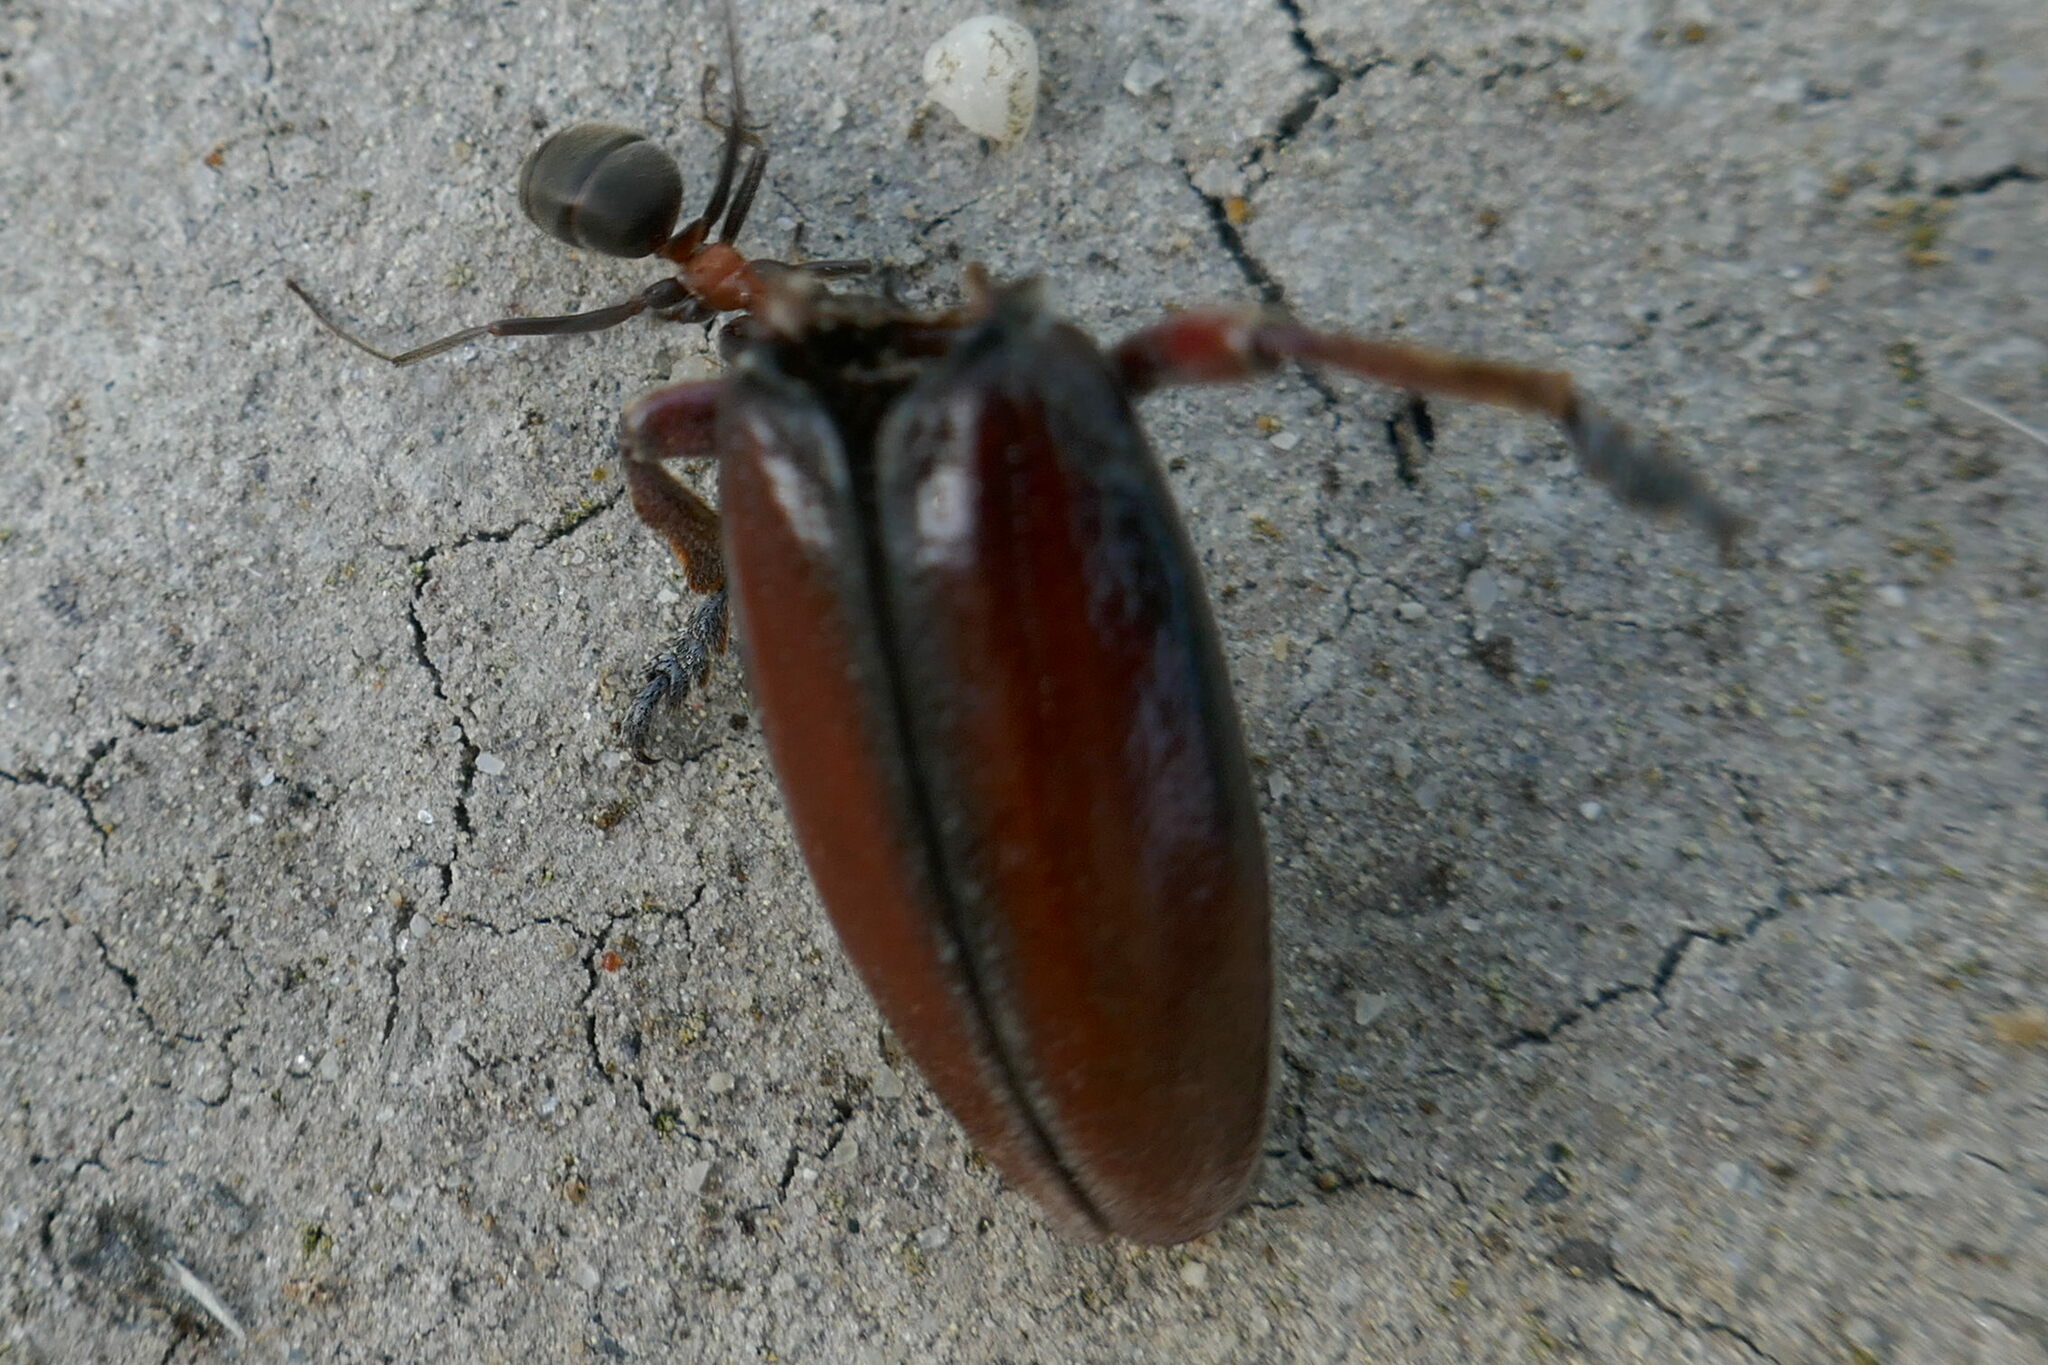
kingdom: Animalia
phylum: Arthropoda
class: Insecta
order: Coleoptera
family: Cerambycidae
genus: Dorcadion
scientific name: Dorcadion fulvum
